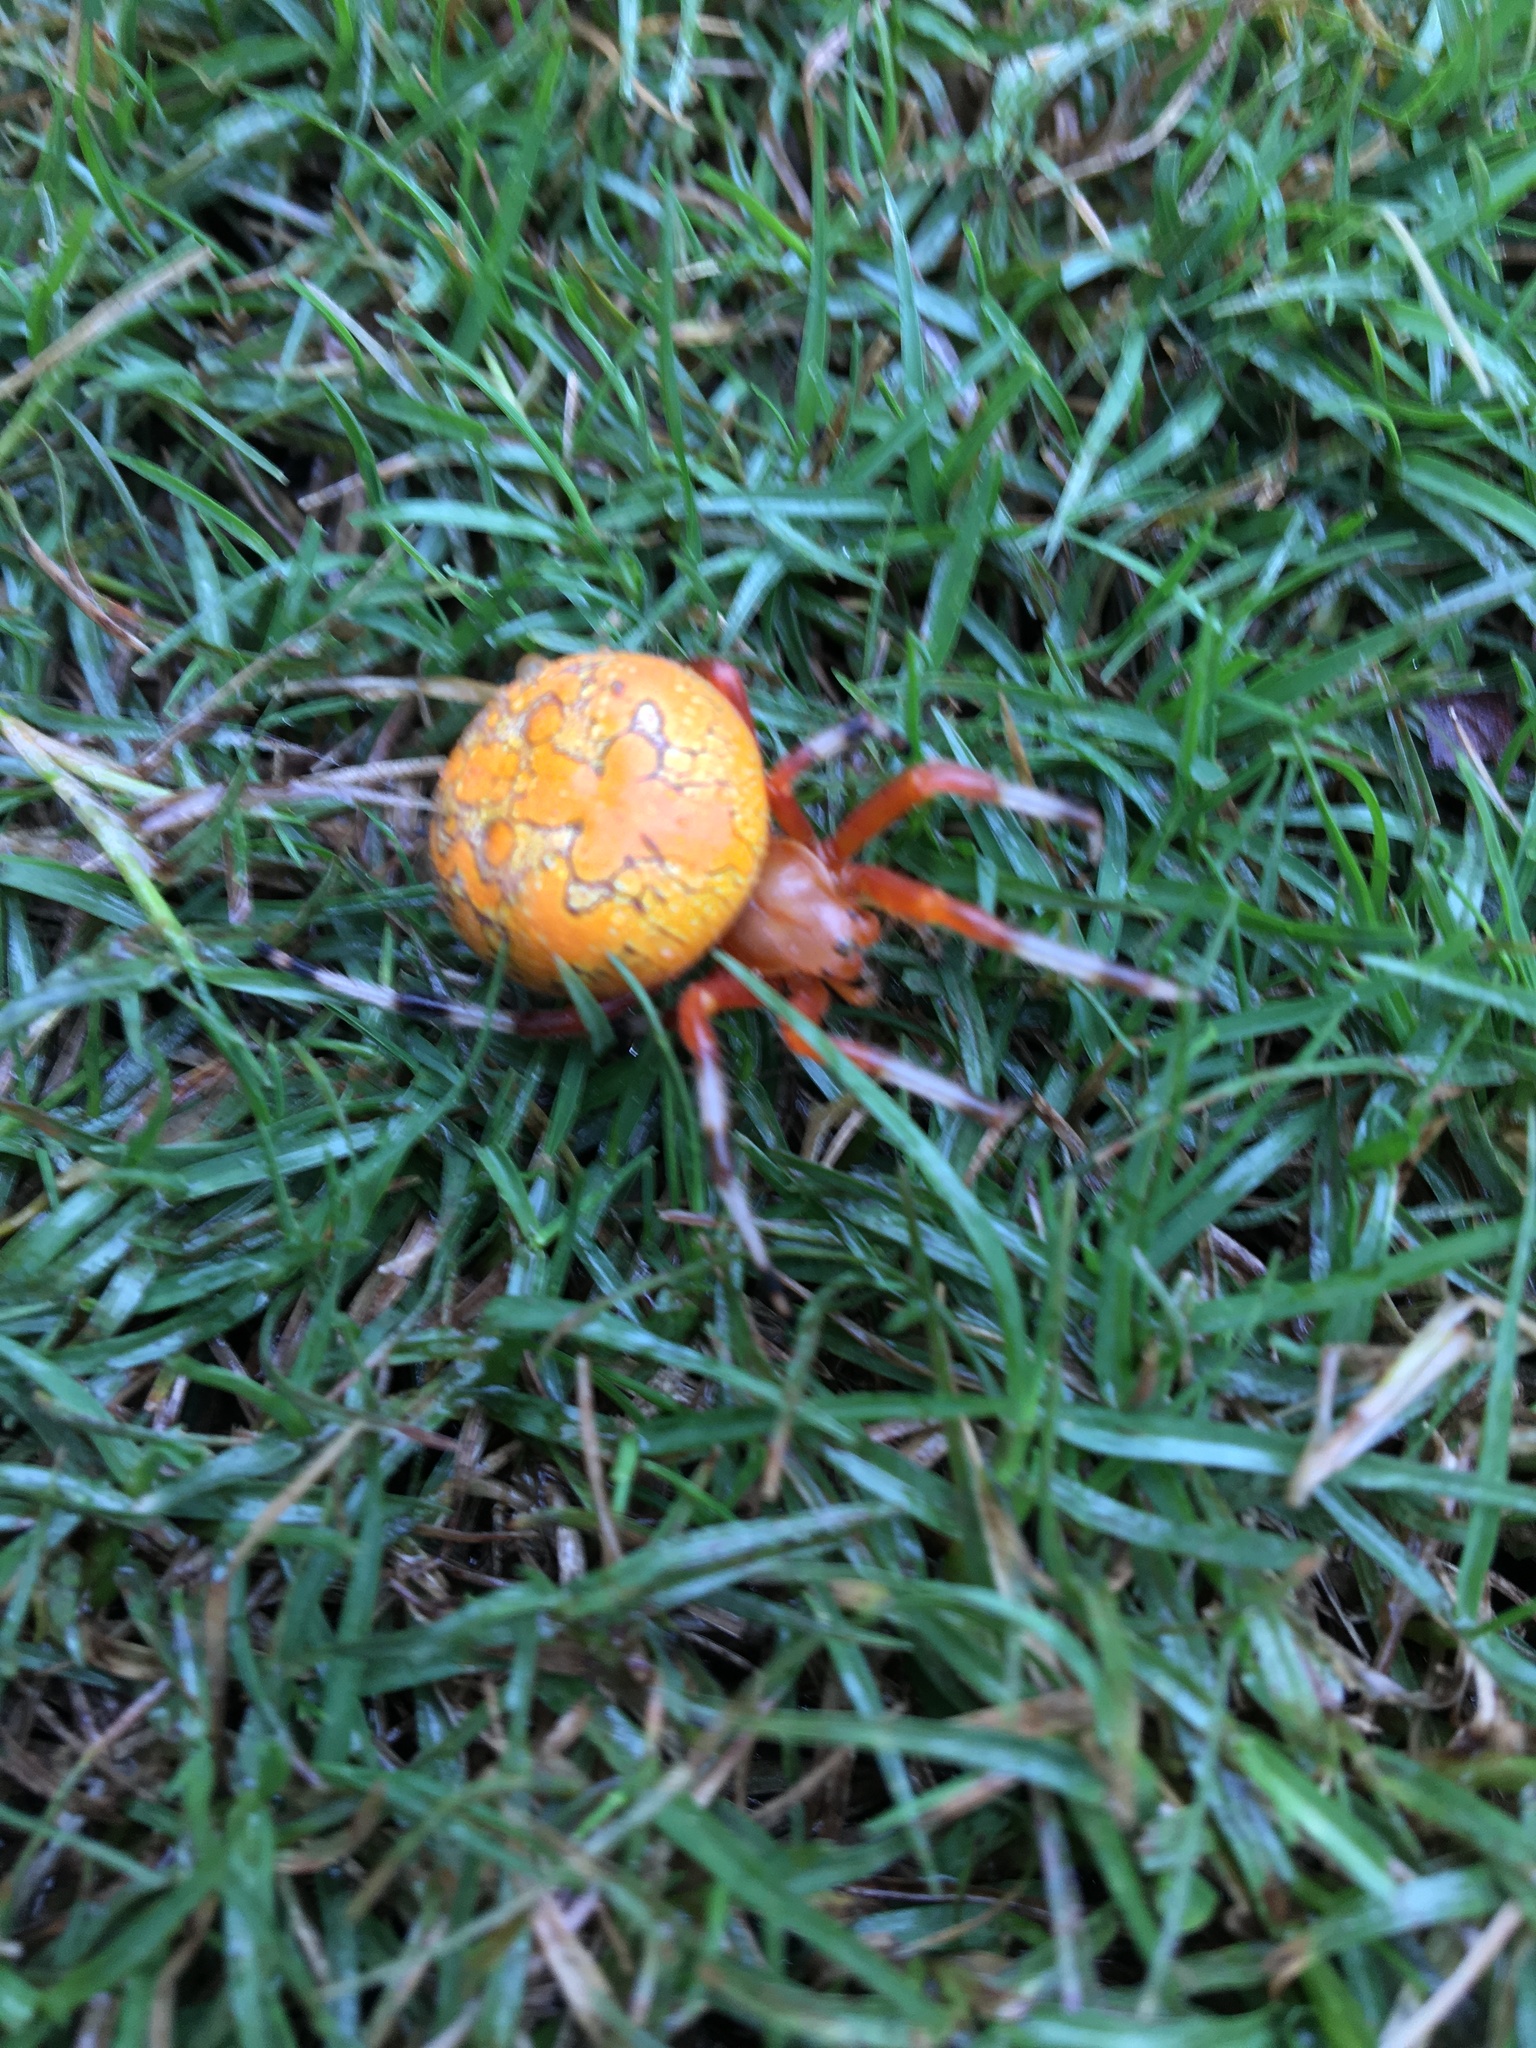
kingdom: Animalia
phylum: Arthropoda
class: Arachnida
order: Araneae
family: Araneidae
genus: Araneus
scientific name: Araneus marmoreus
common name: Marbled orbweaver
